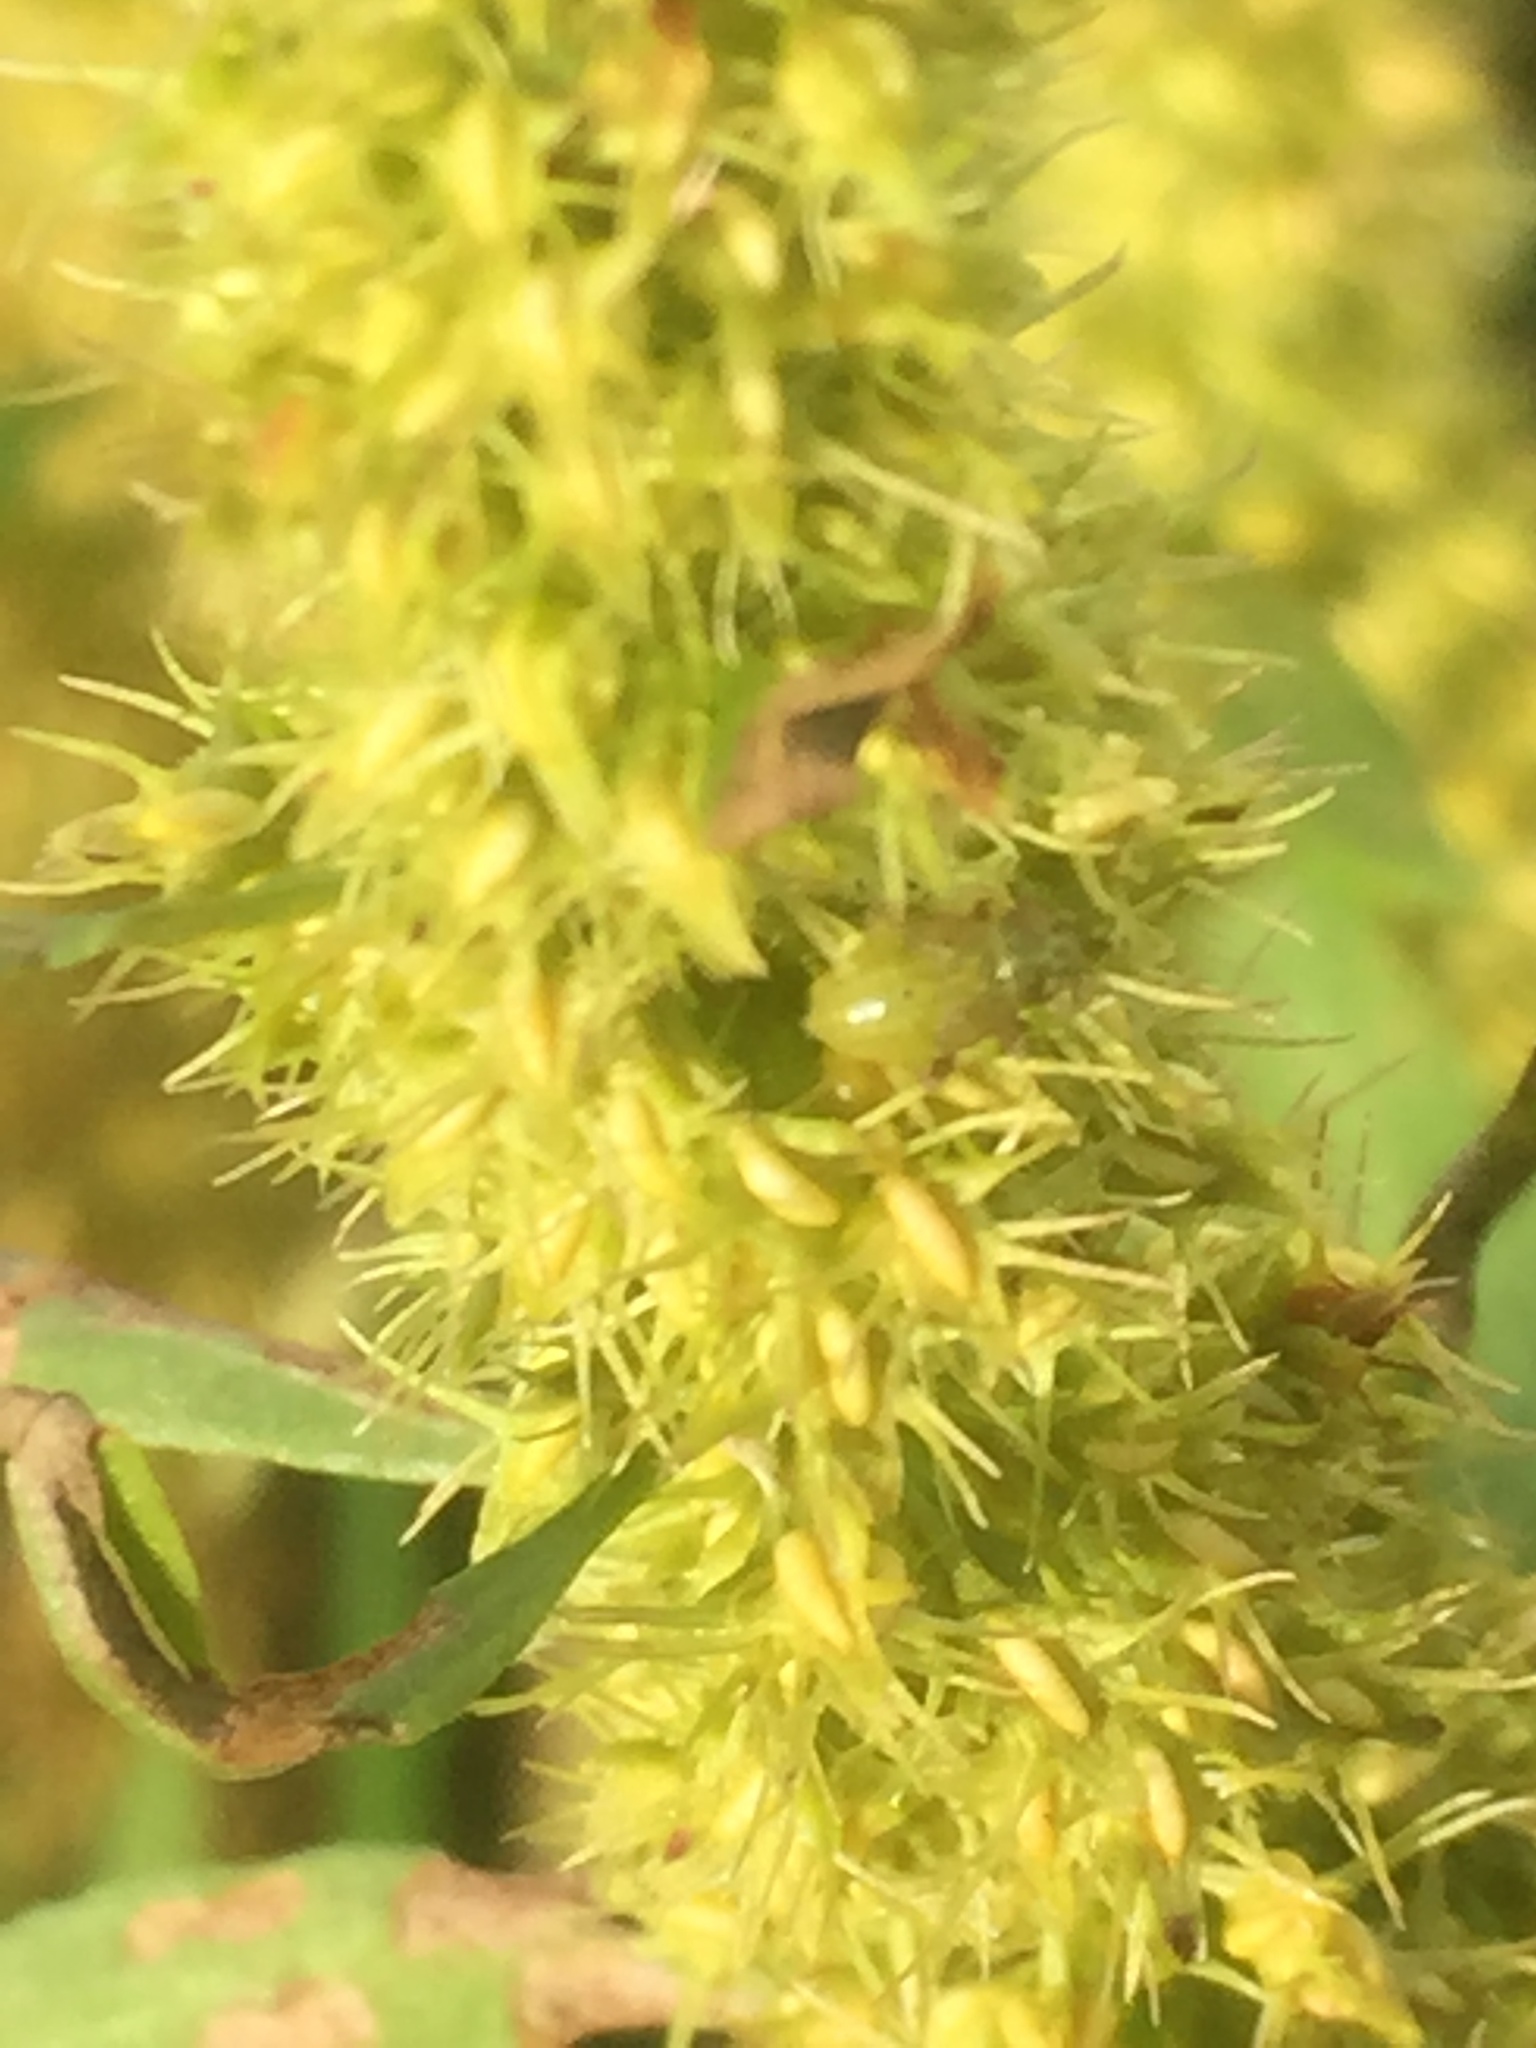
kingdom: Plantae
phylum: Tracheophyta
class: Magnoliopsida
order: Caryophyllales
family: Polygonaceae
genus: Rumex
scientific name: Rumex maritimus
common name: Golden dock
